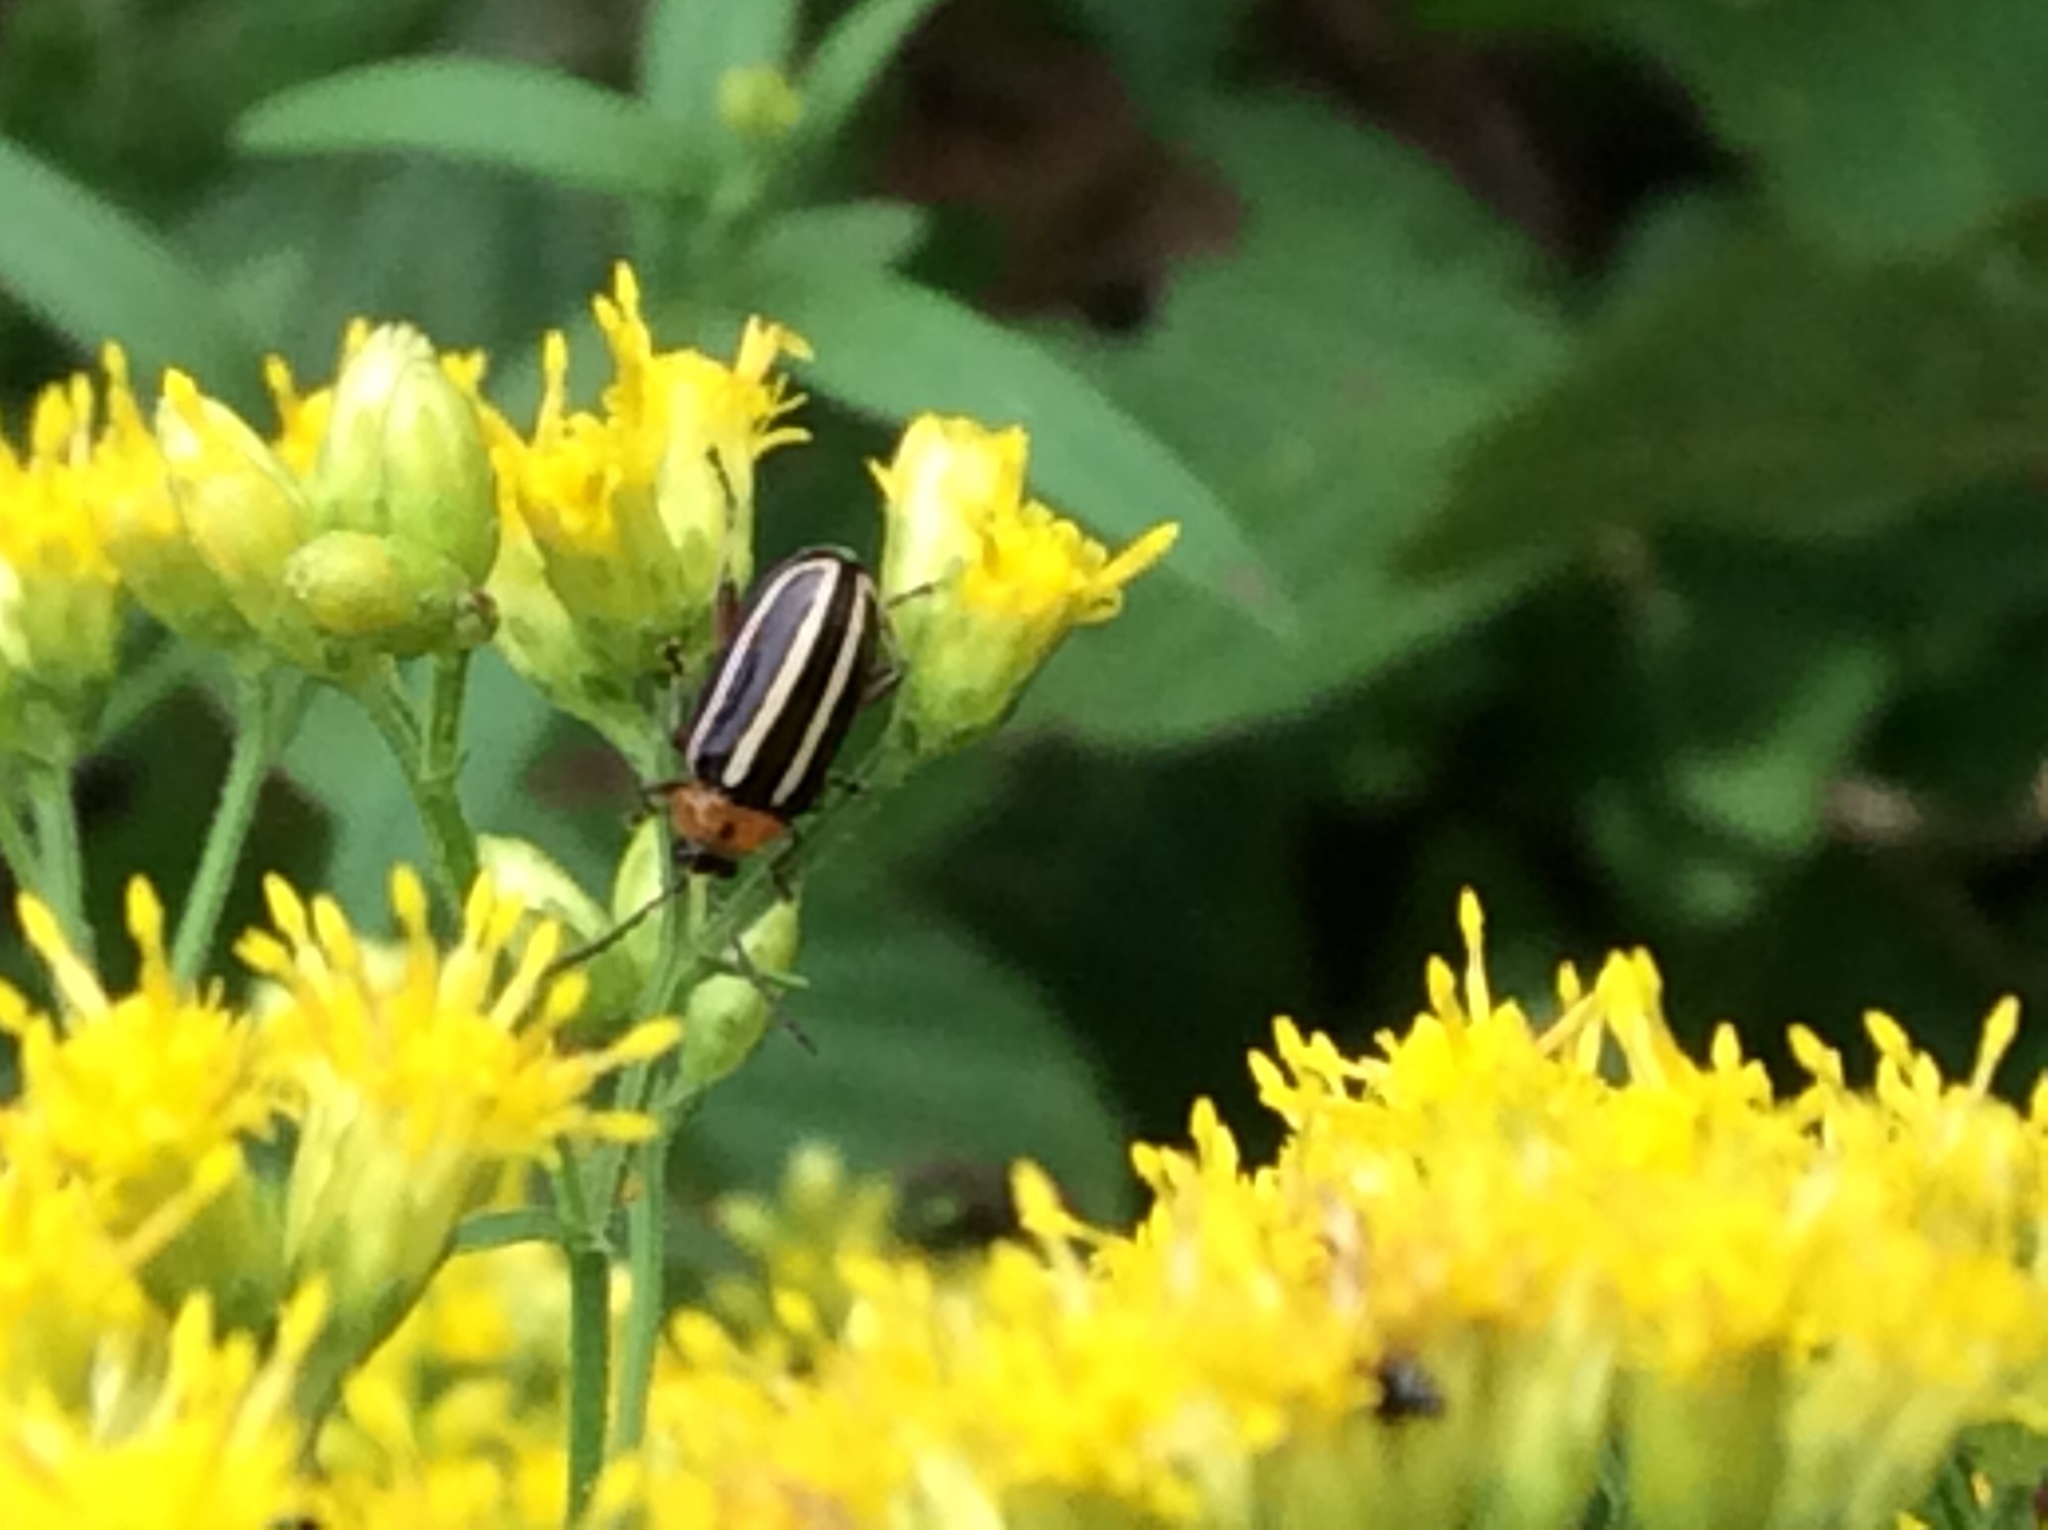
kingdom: Animalia
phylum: Arthropoda
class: Insecta
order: Coleoptera
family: Chrysomelidae
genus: Disonycha
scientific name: Disonycha glabrata
